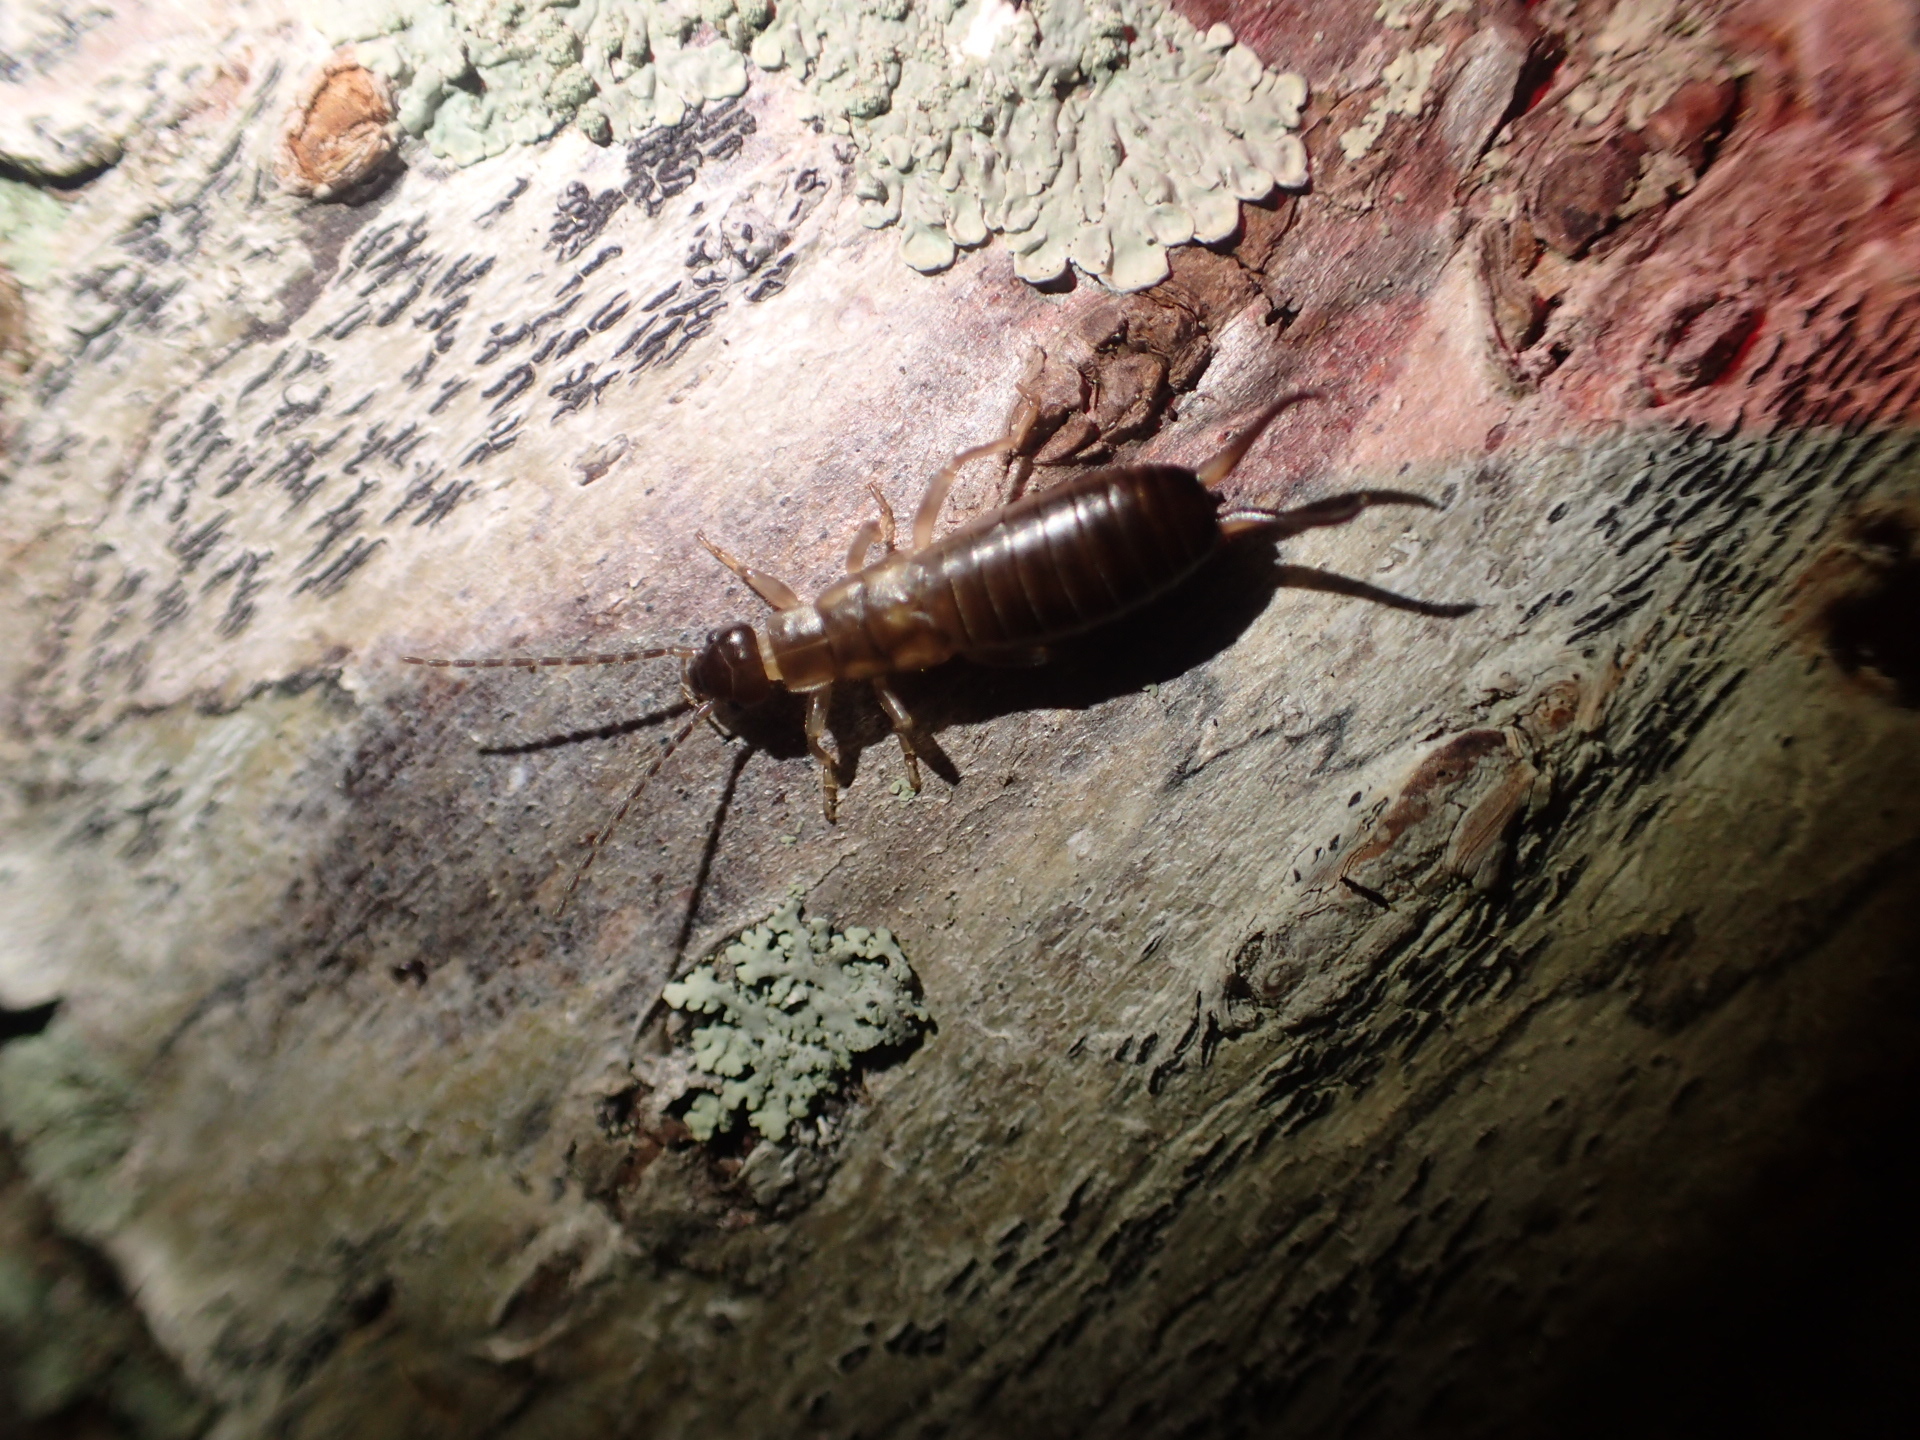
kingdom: Animalia
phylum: Arthropoda
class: Insecta
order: Dermaptera
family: Forficulidae
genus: Forficula
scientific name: Forficula
